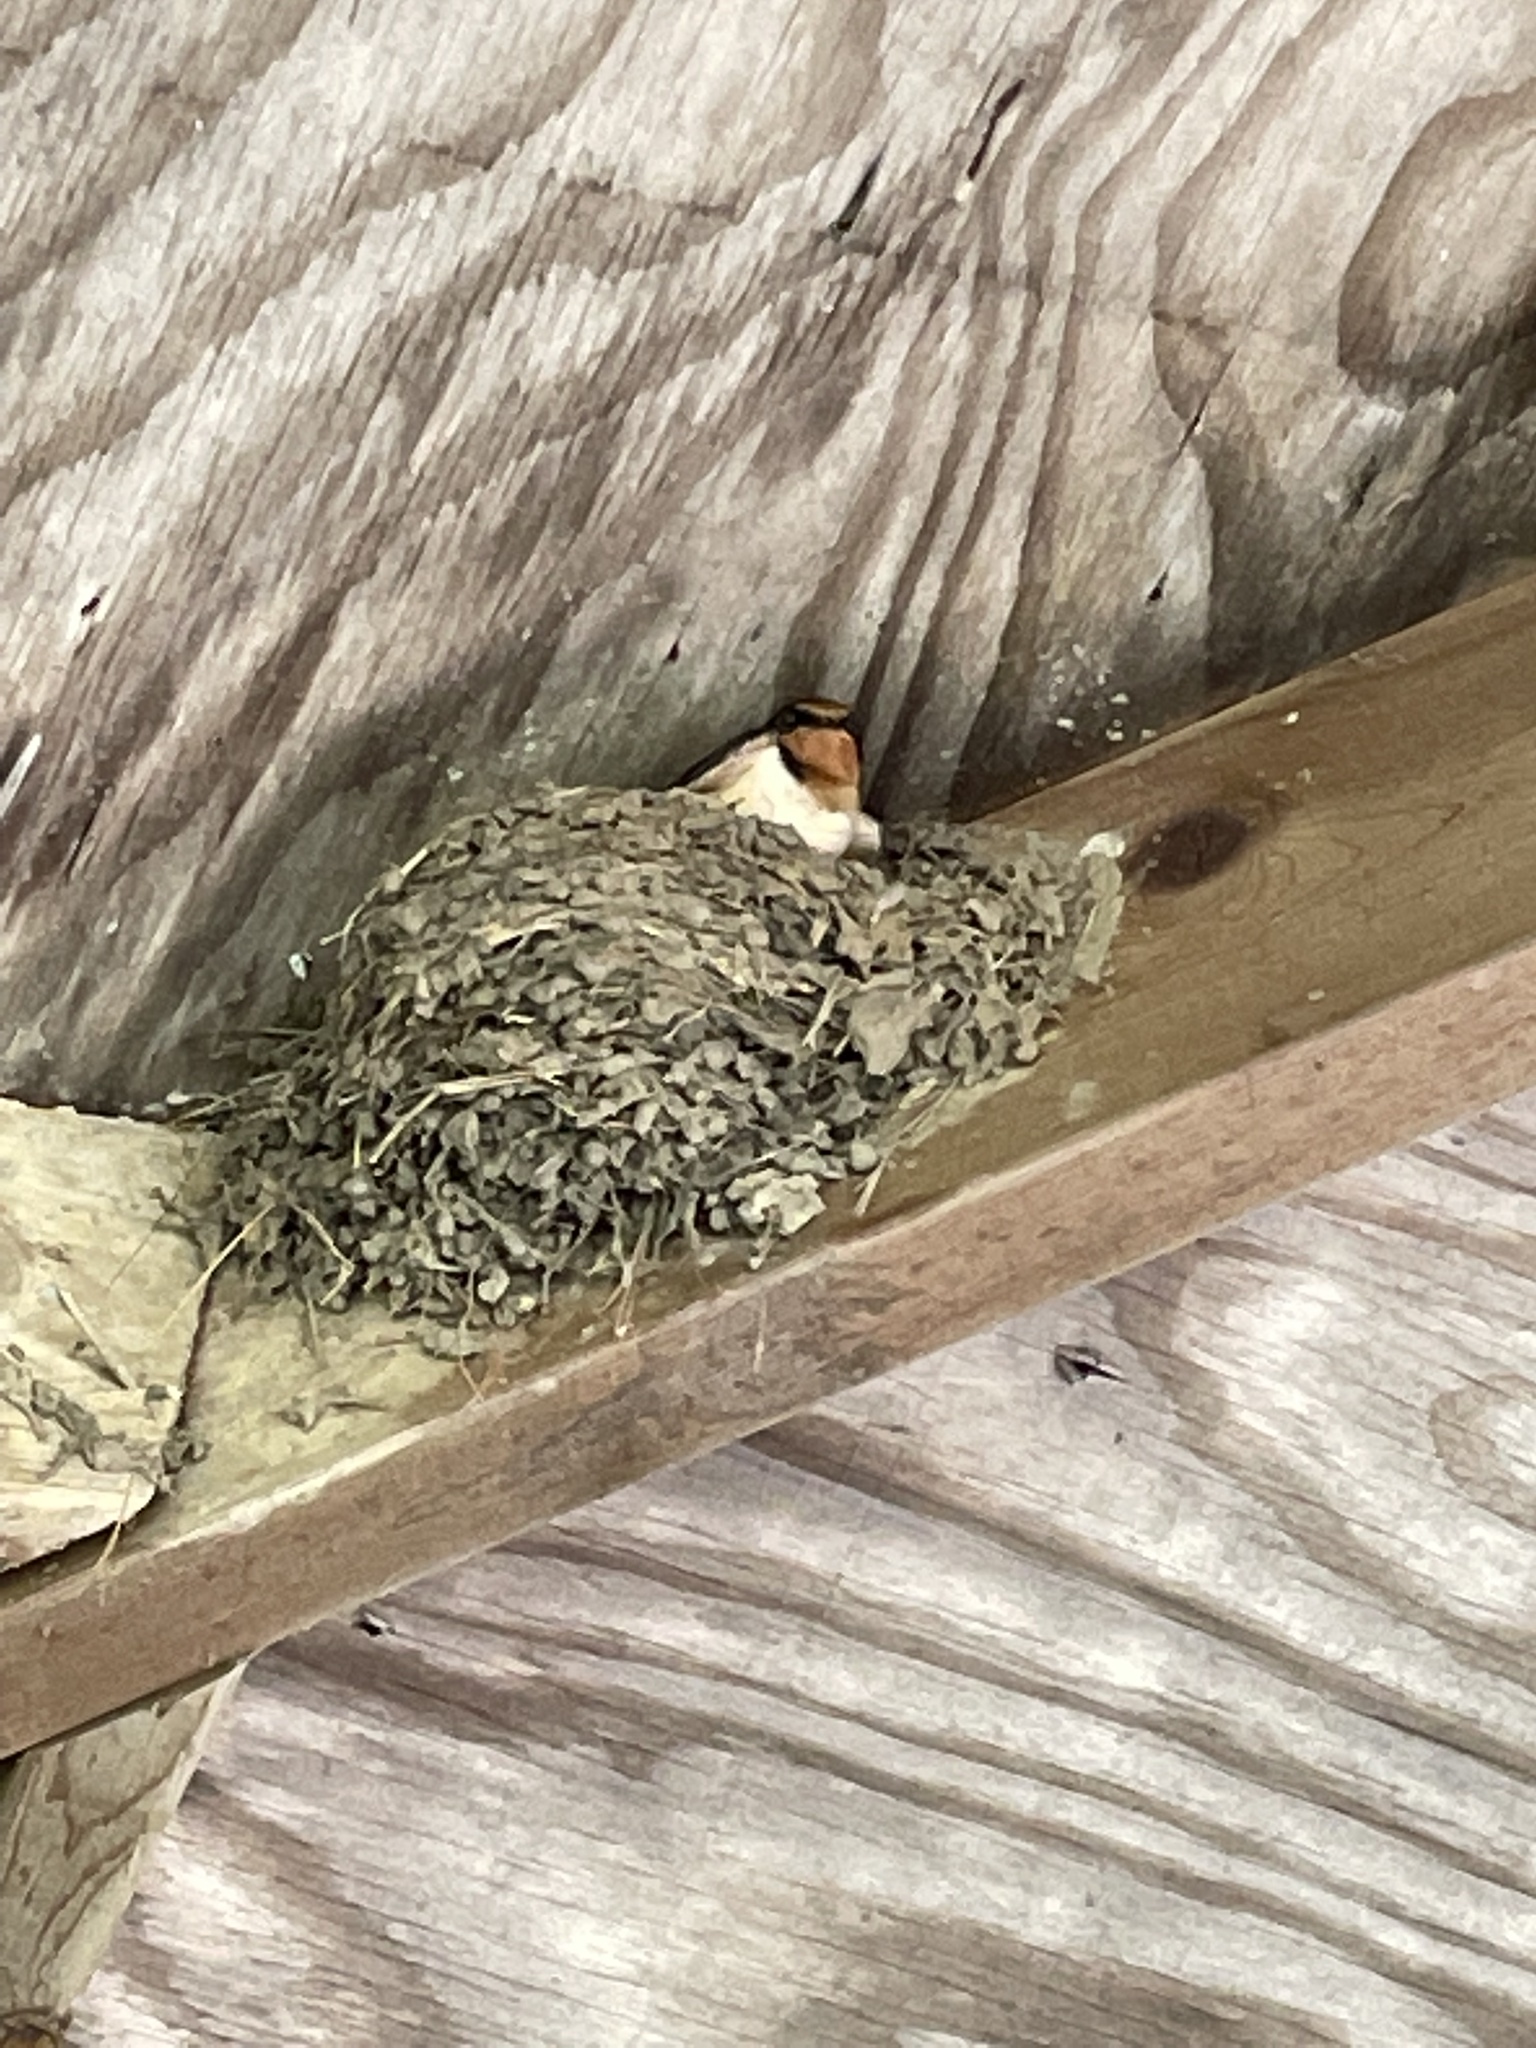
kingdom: Animalia
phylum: Chordata
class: Aves
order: Passeriformes
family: Hirundinidae
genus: Hirundo
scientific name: Hirundo rustica
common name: Barn swallow
